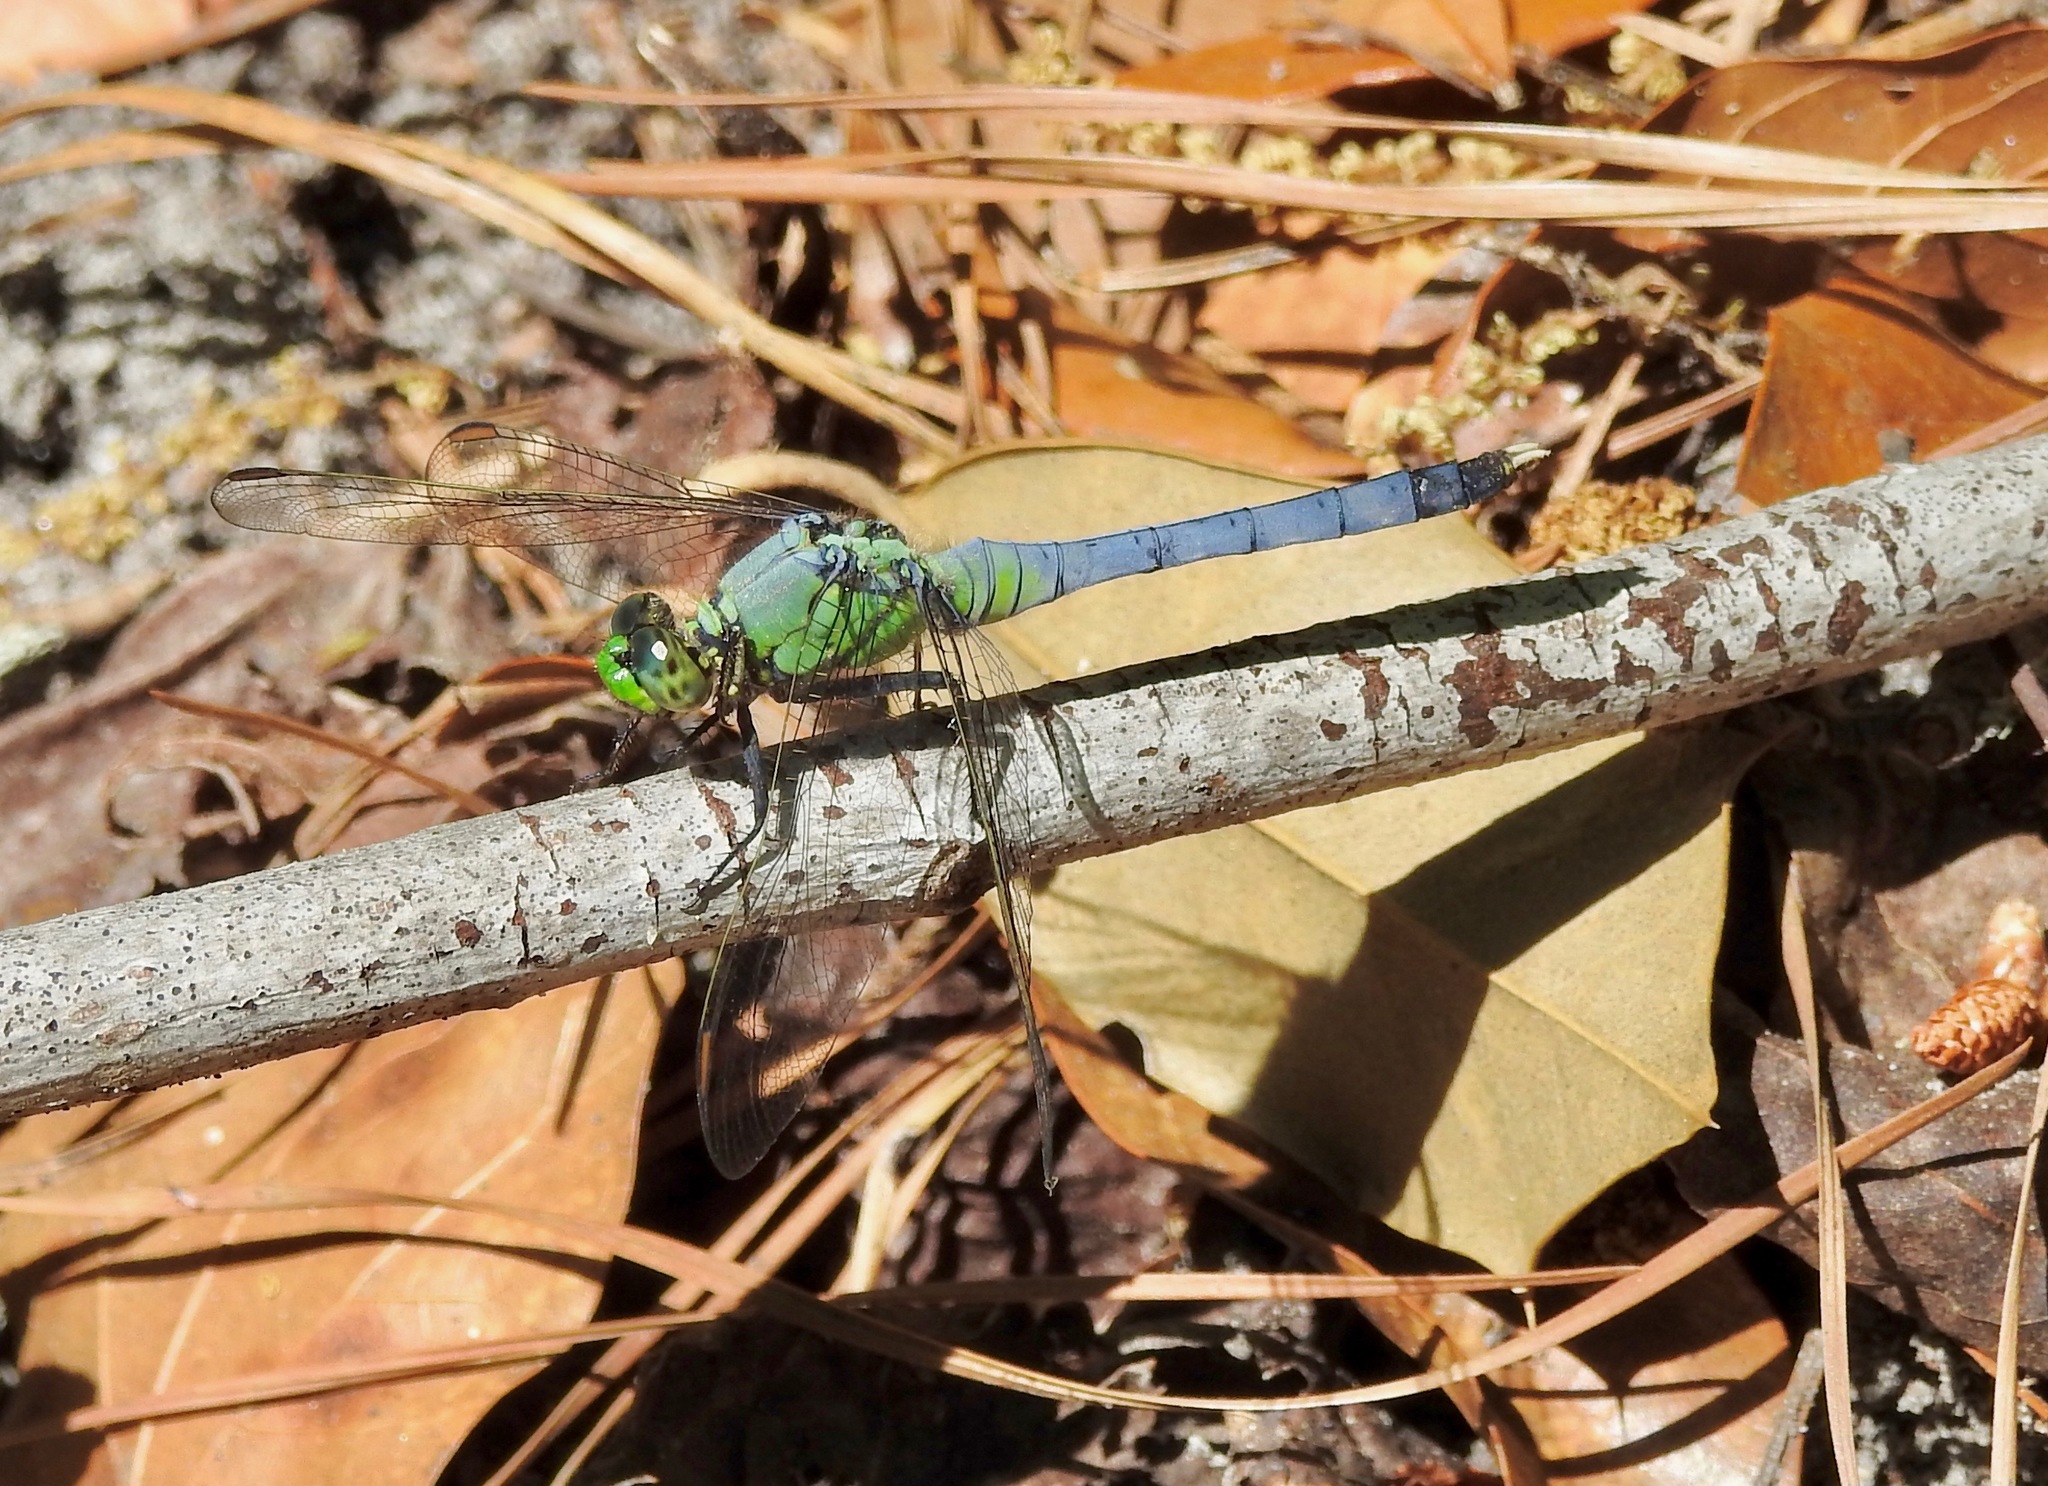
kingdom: Animalia
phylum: Arthropoda
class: Insecta
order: Odonata
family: Libellulidae
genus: Erythemis
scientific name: Erythemis simplicicollis
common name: Eastern pondhawk
